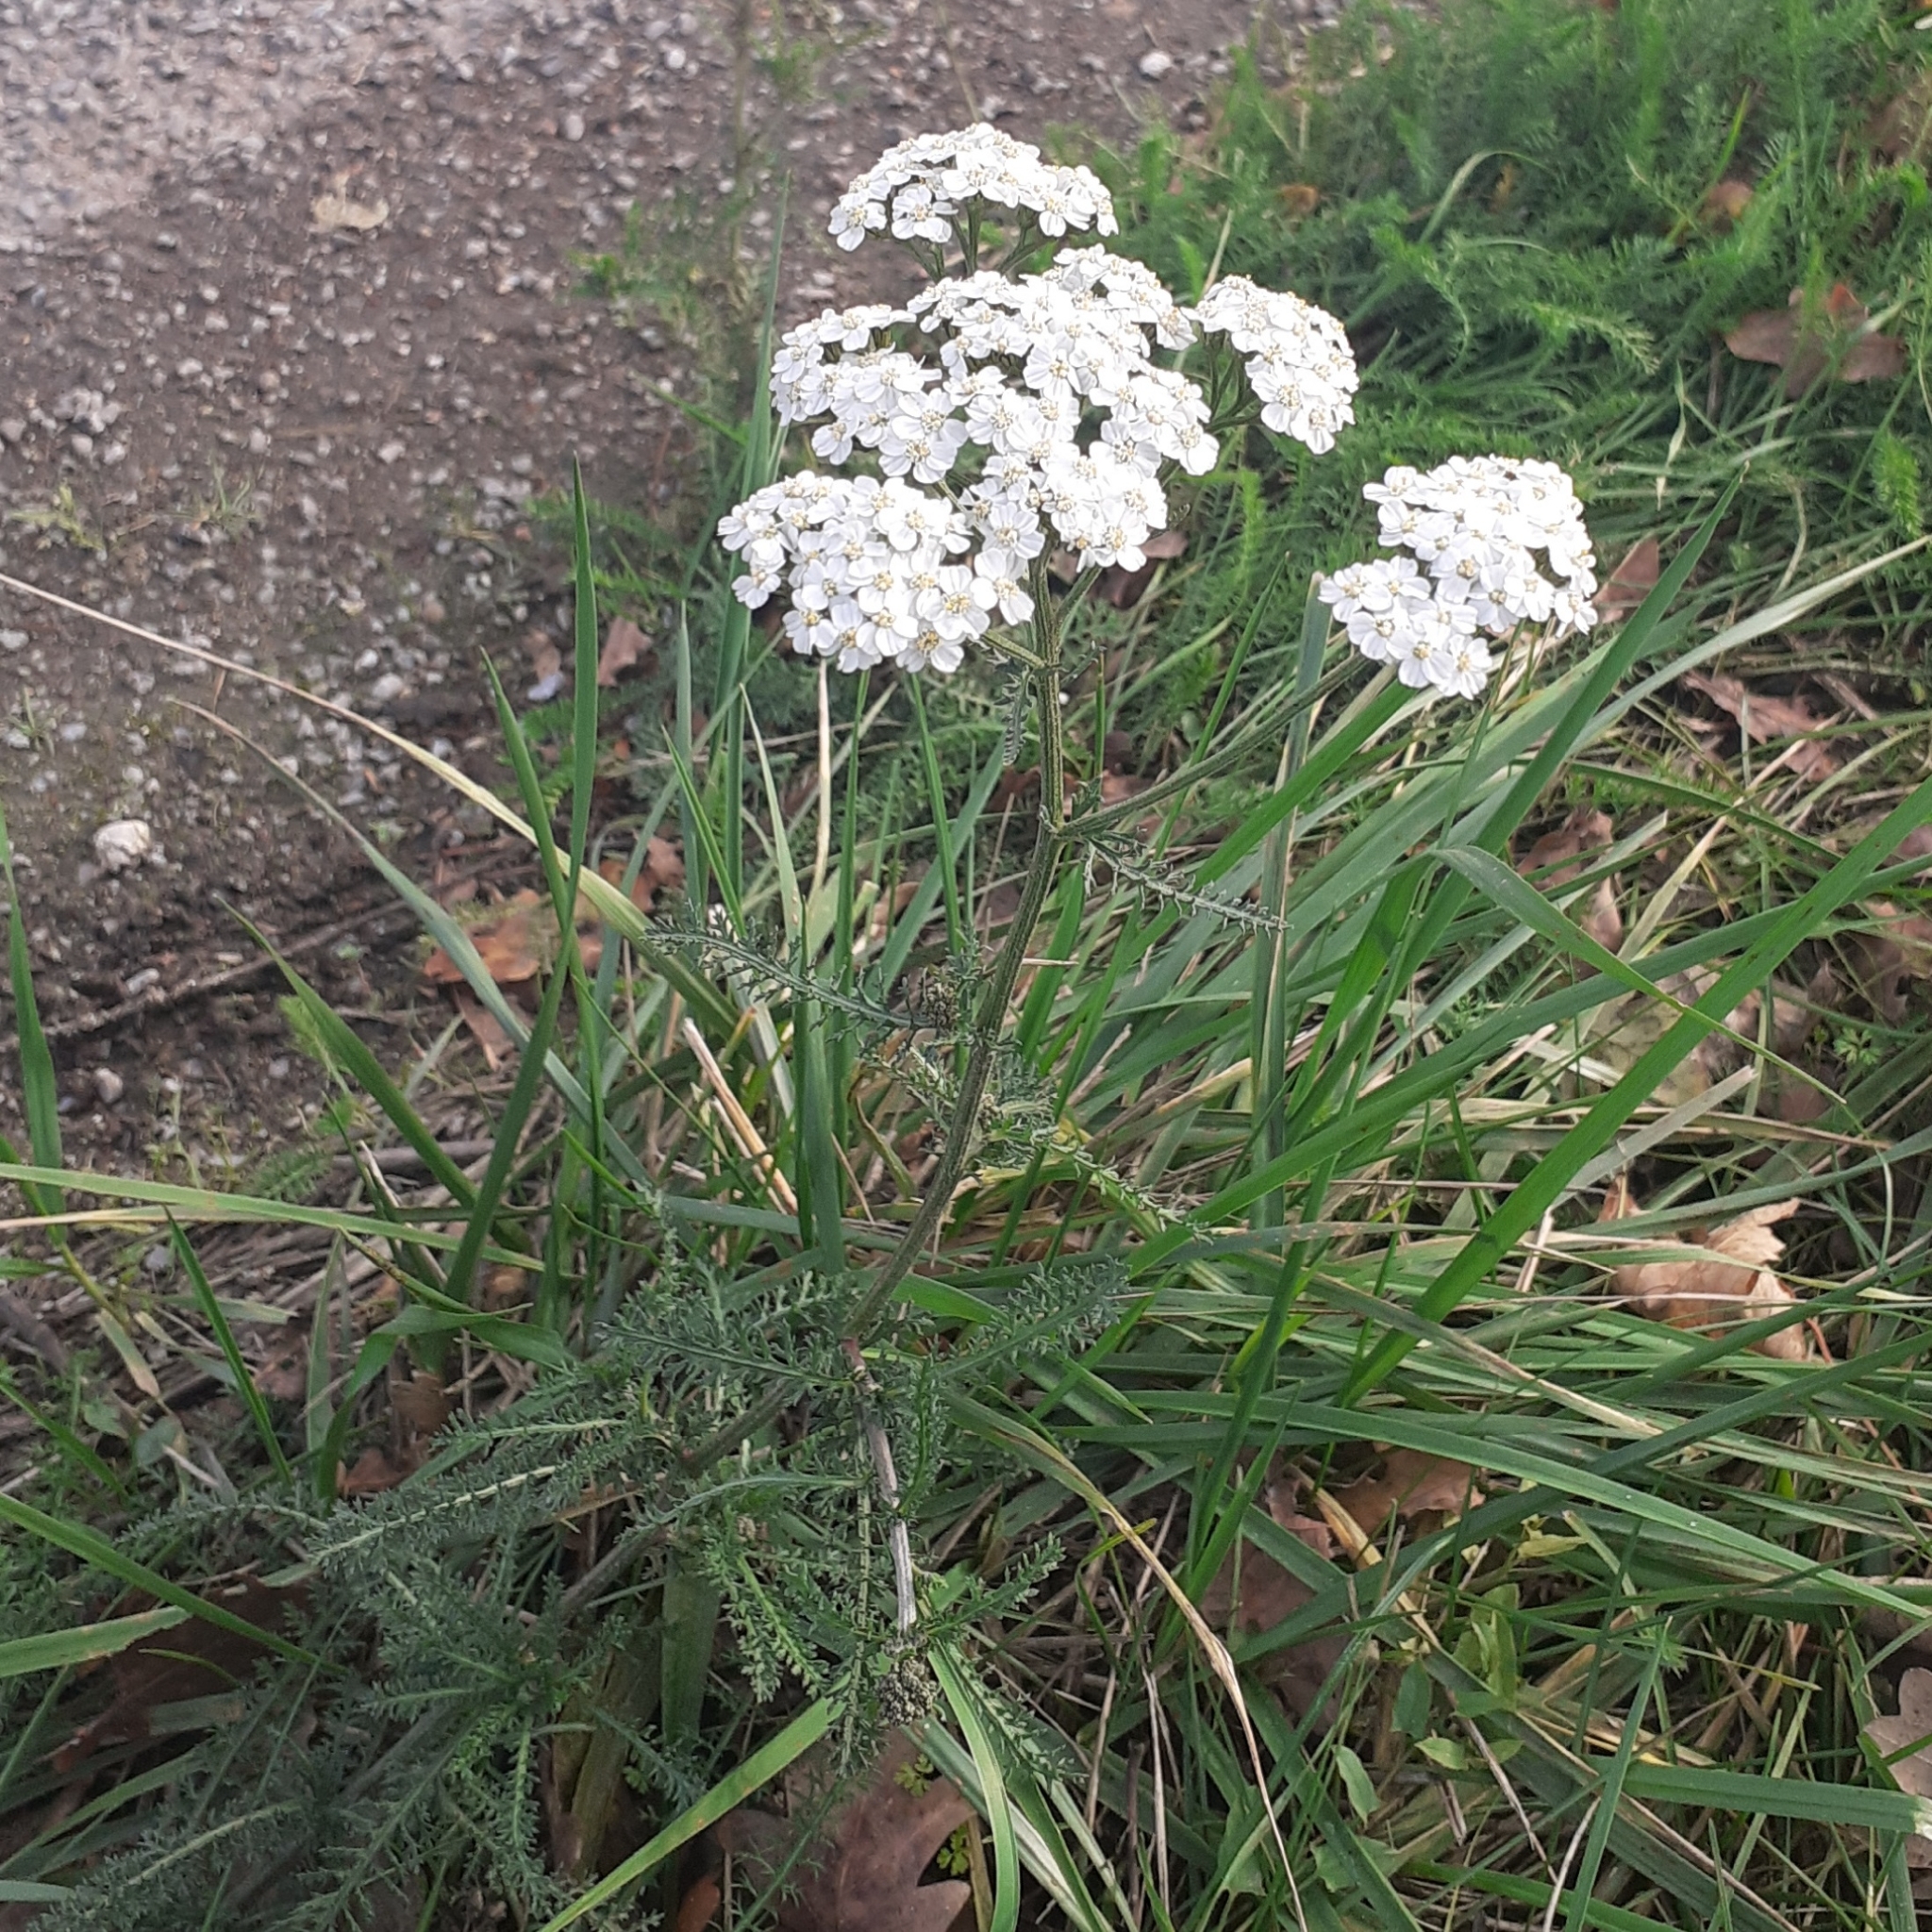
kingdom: Plantae
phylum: Tracheophyta
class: Magnoliopsida
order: Asterales
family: Asteraceae
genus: Achillea
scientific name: Achillea millefolium
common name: Yarrow
